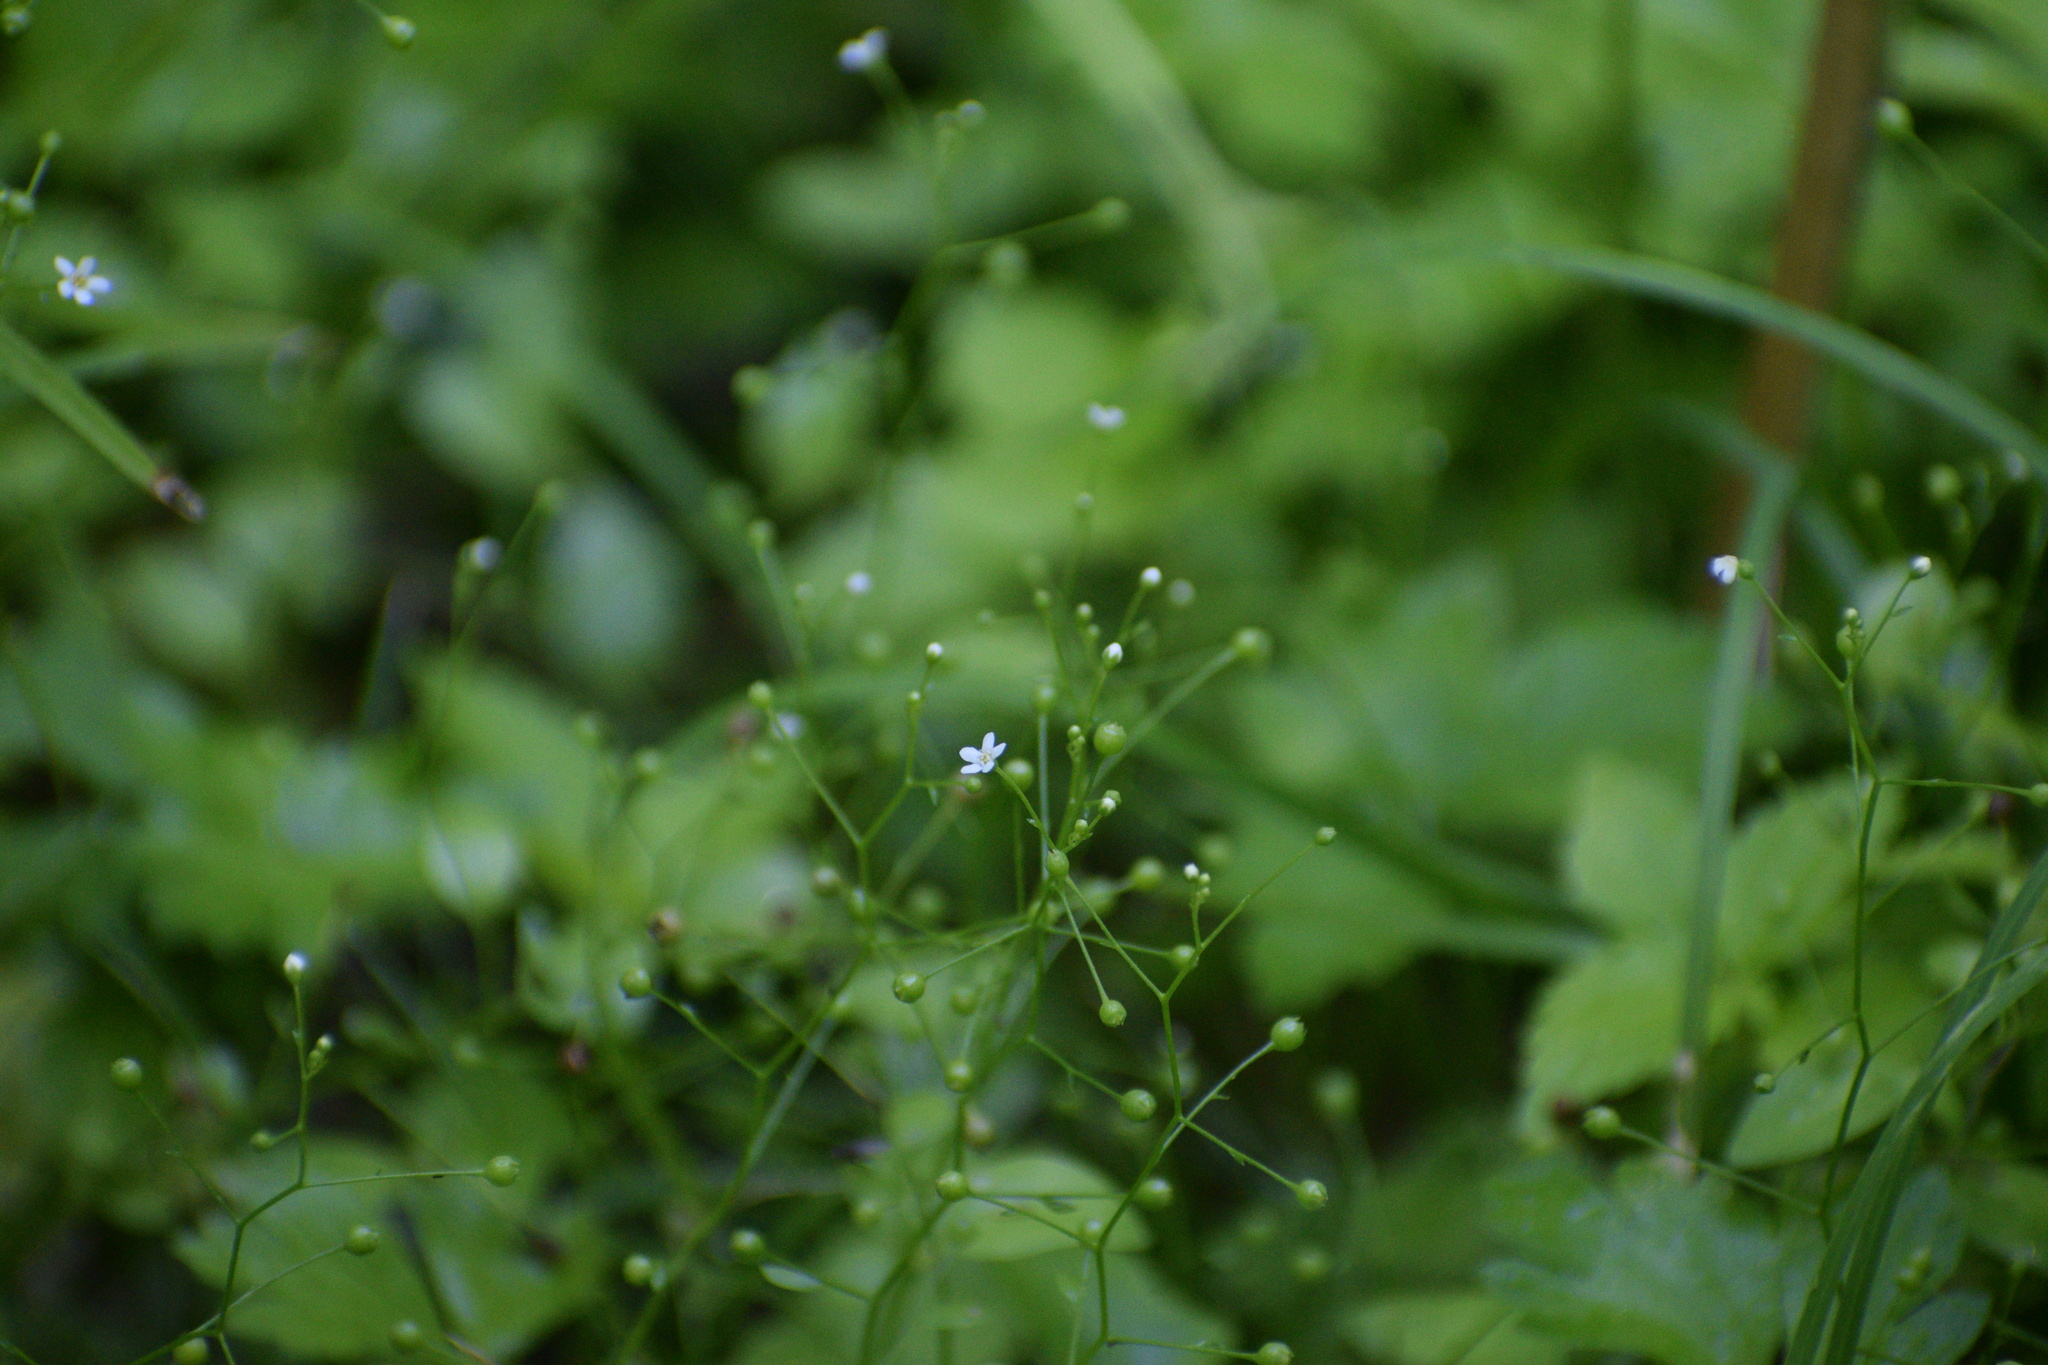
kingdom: Plantae
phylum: Tracheophyta
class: Magnoliopsida
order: Ericales
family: Primulaceae
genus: Samolus
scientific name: Samolus parviflorus
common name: False water pimpernel
